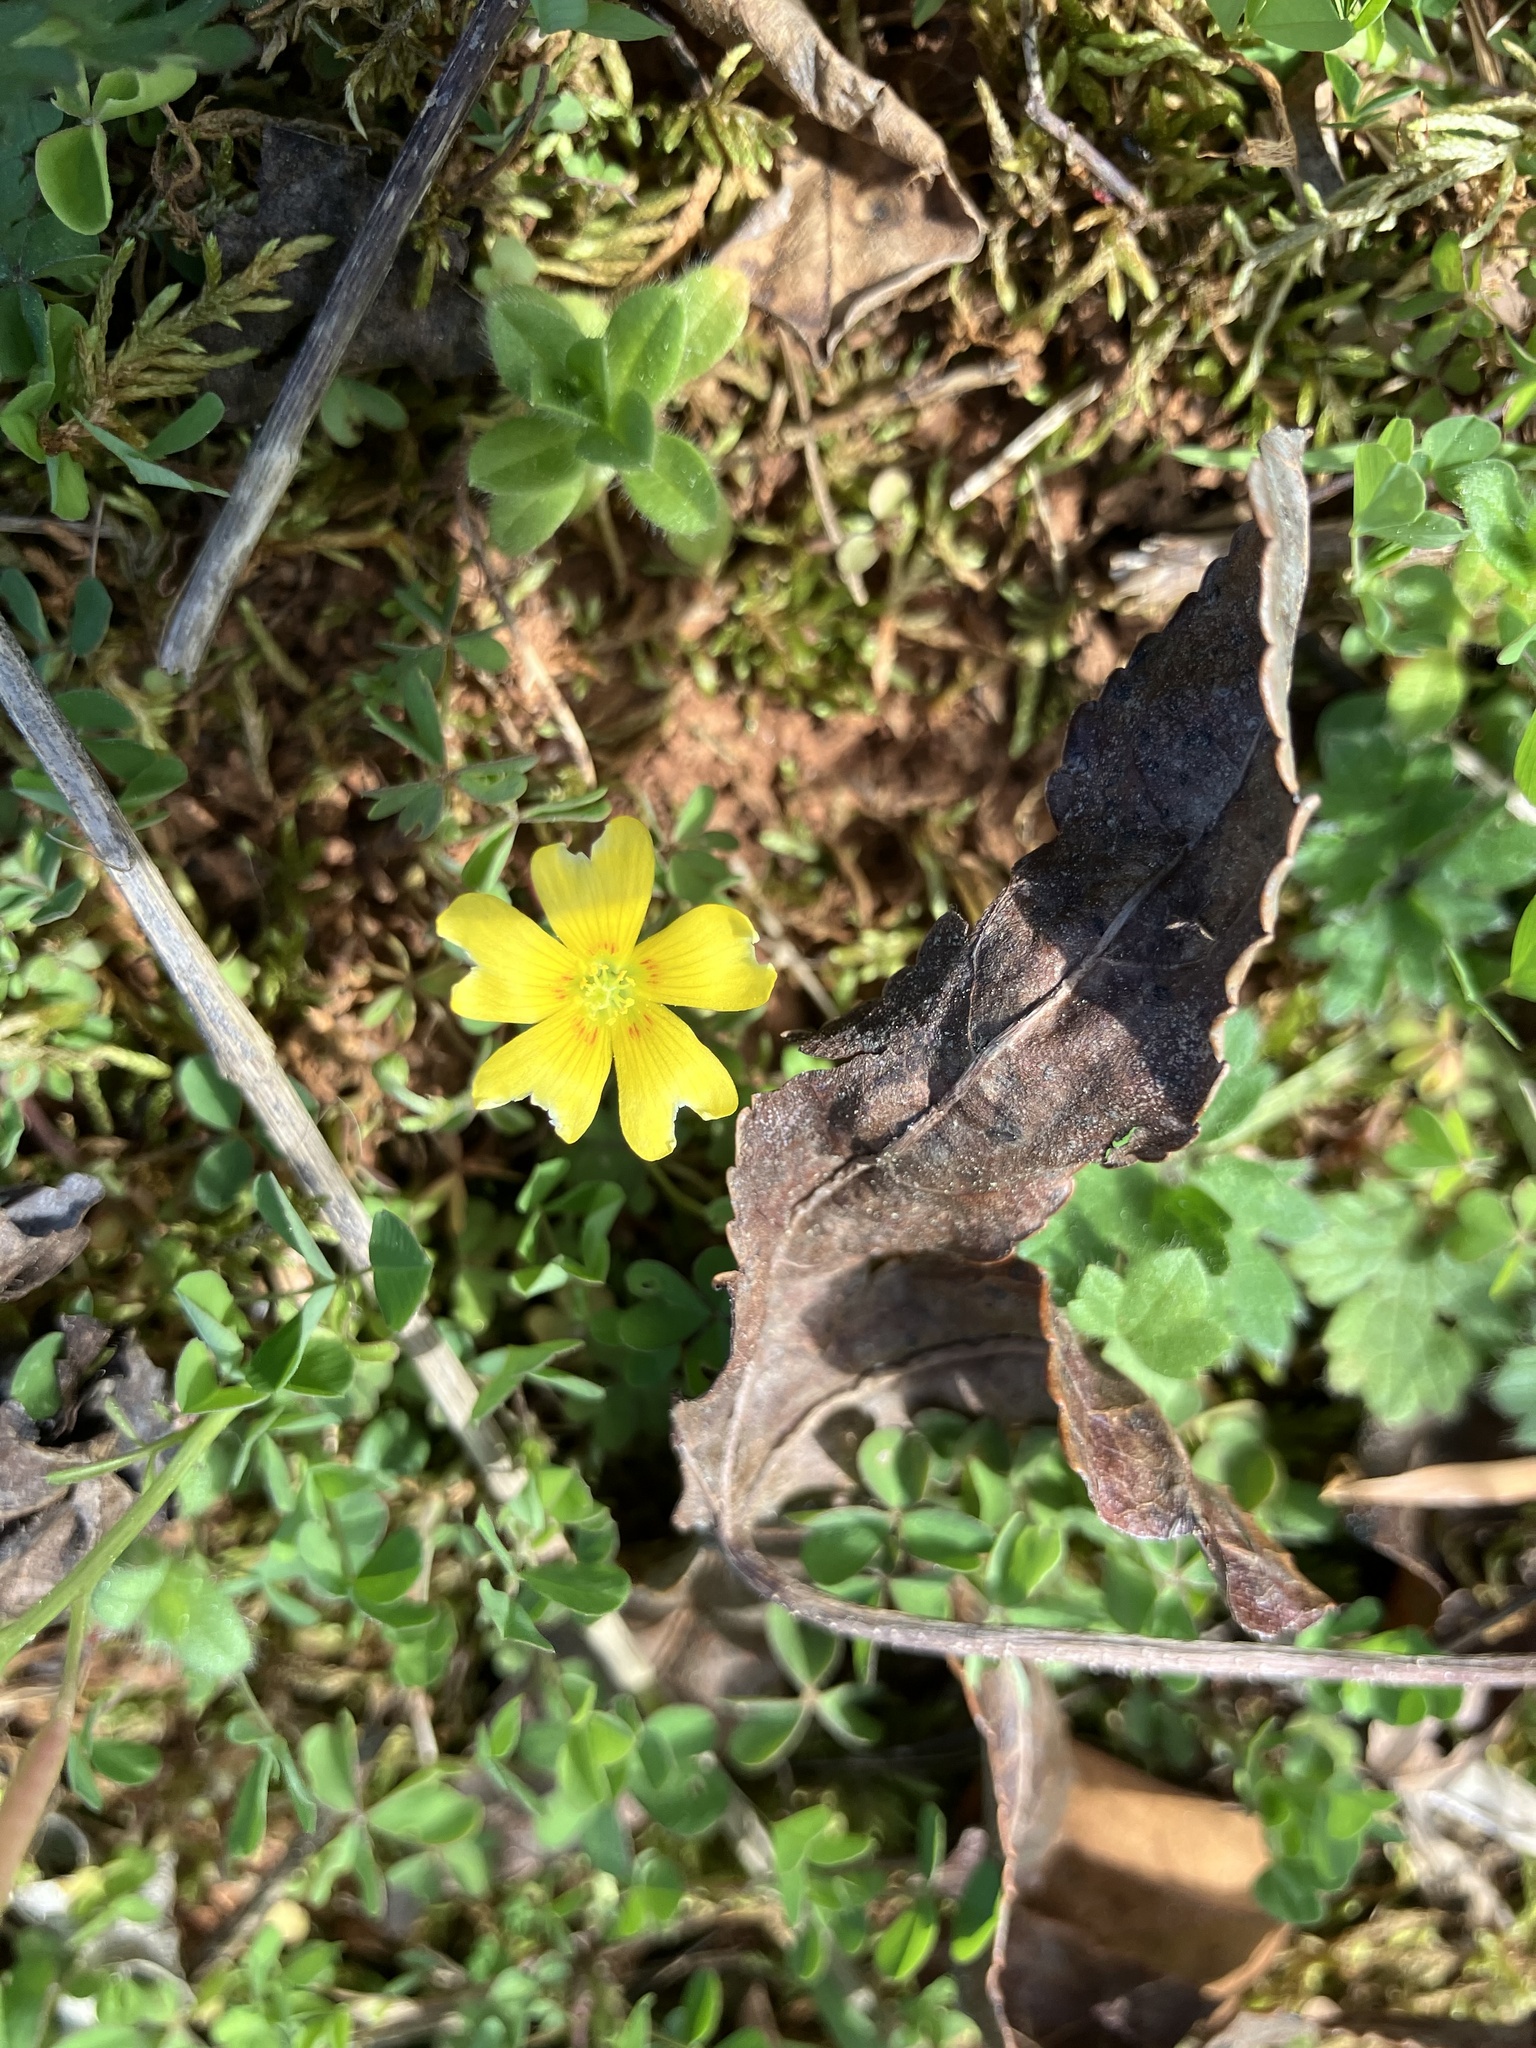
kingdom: Plantae
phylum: Tracheophyta
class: Magnoliopsida
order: Oxalidales
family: Oxalidaceae
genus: Oxalis
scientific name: Oxalis corniculata
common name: Procumbent yellow-sorrel
